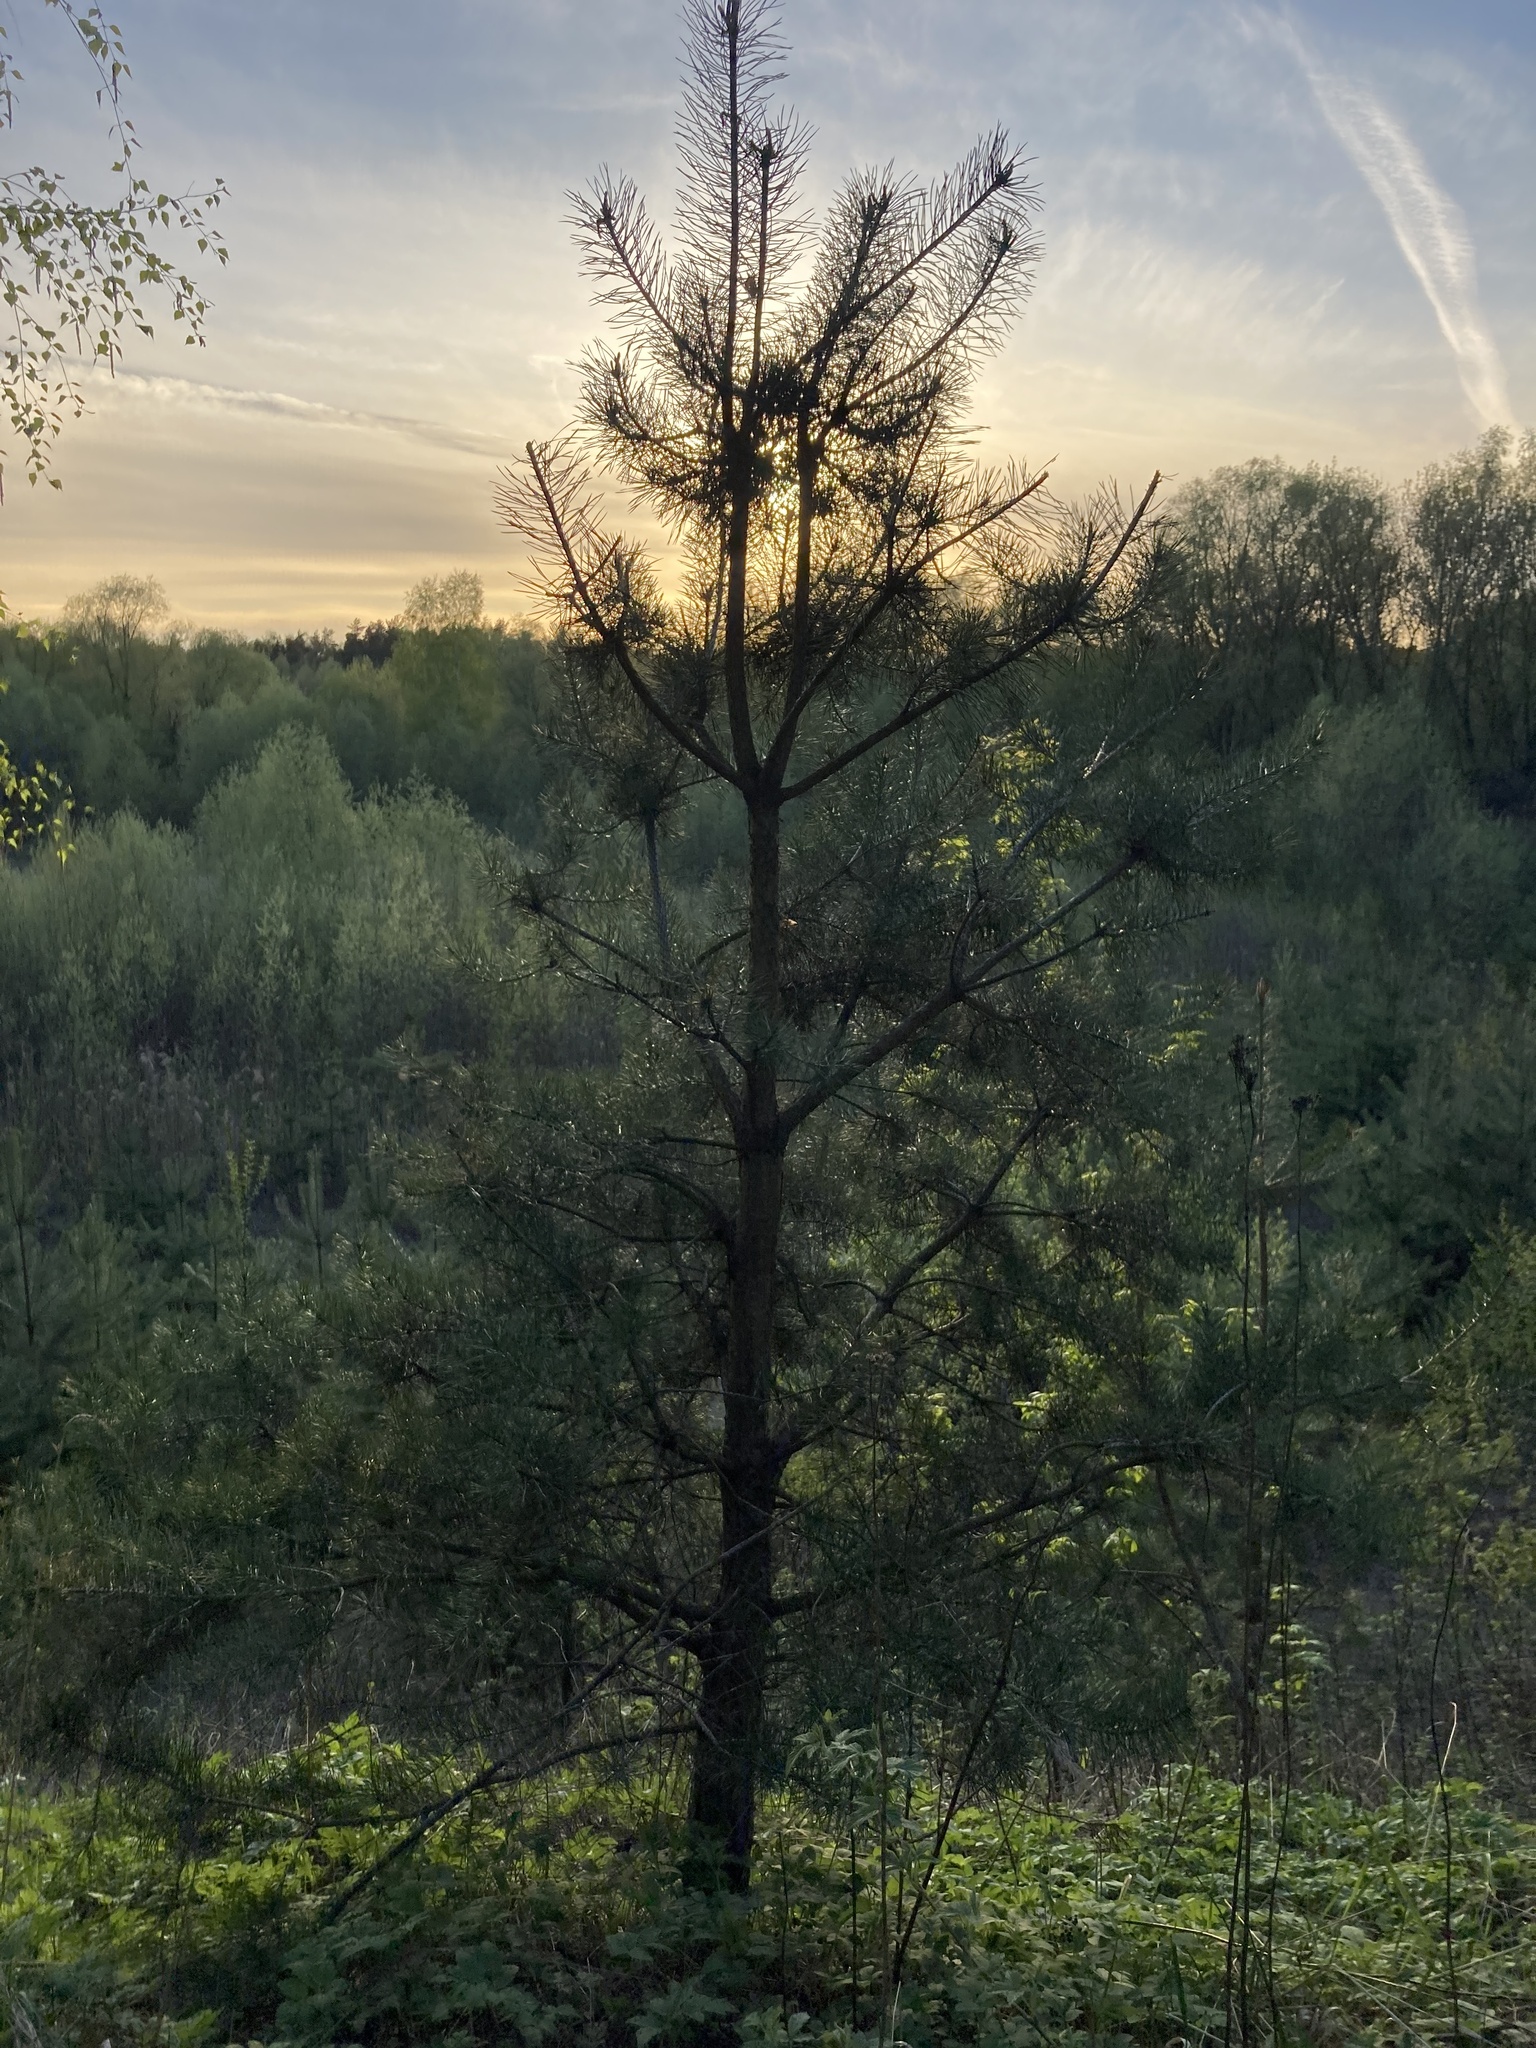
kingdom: Plantae
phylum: Tracheophyta
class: Pinopsida
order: Pinales
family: Pinaceae
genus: Pinus
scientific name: Pinus sylvestris
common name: Scots pine
